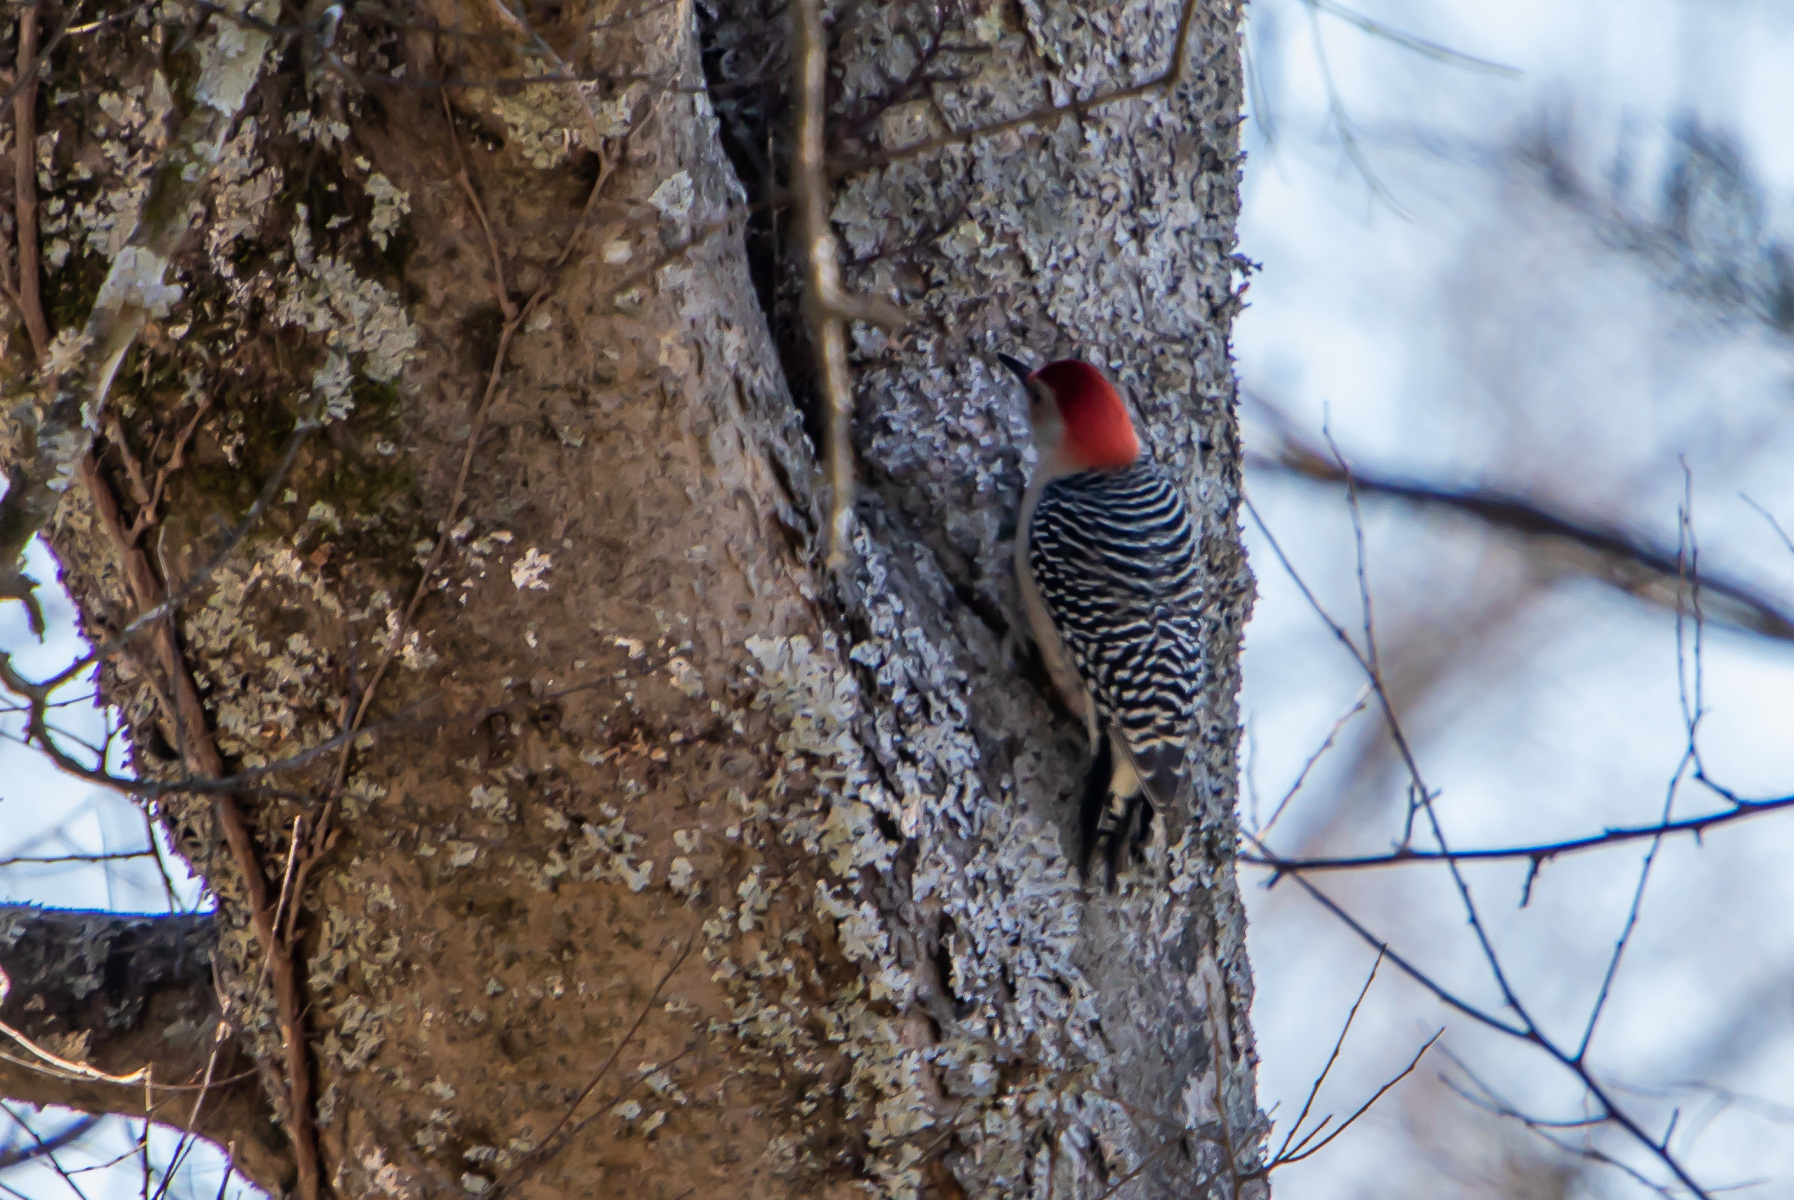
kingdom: Animalia
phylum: Chordata
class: Aves
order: Piciformes
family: Picidae
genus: Melanerpes
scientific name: Melanerpes carolinus
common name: Red-bellied woodpecker
